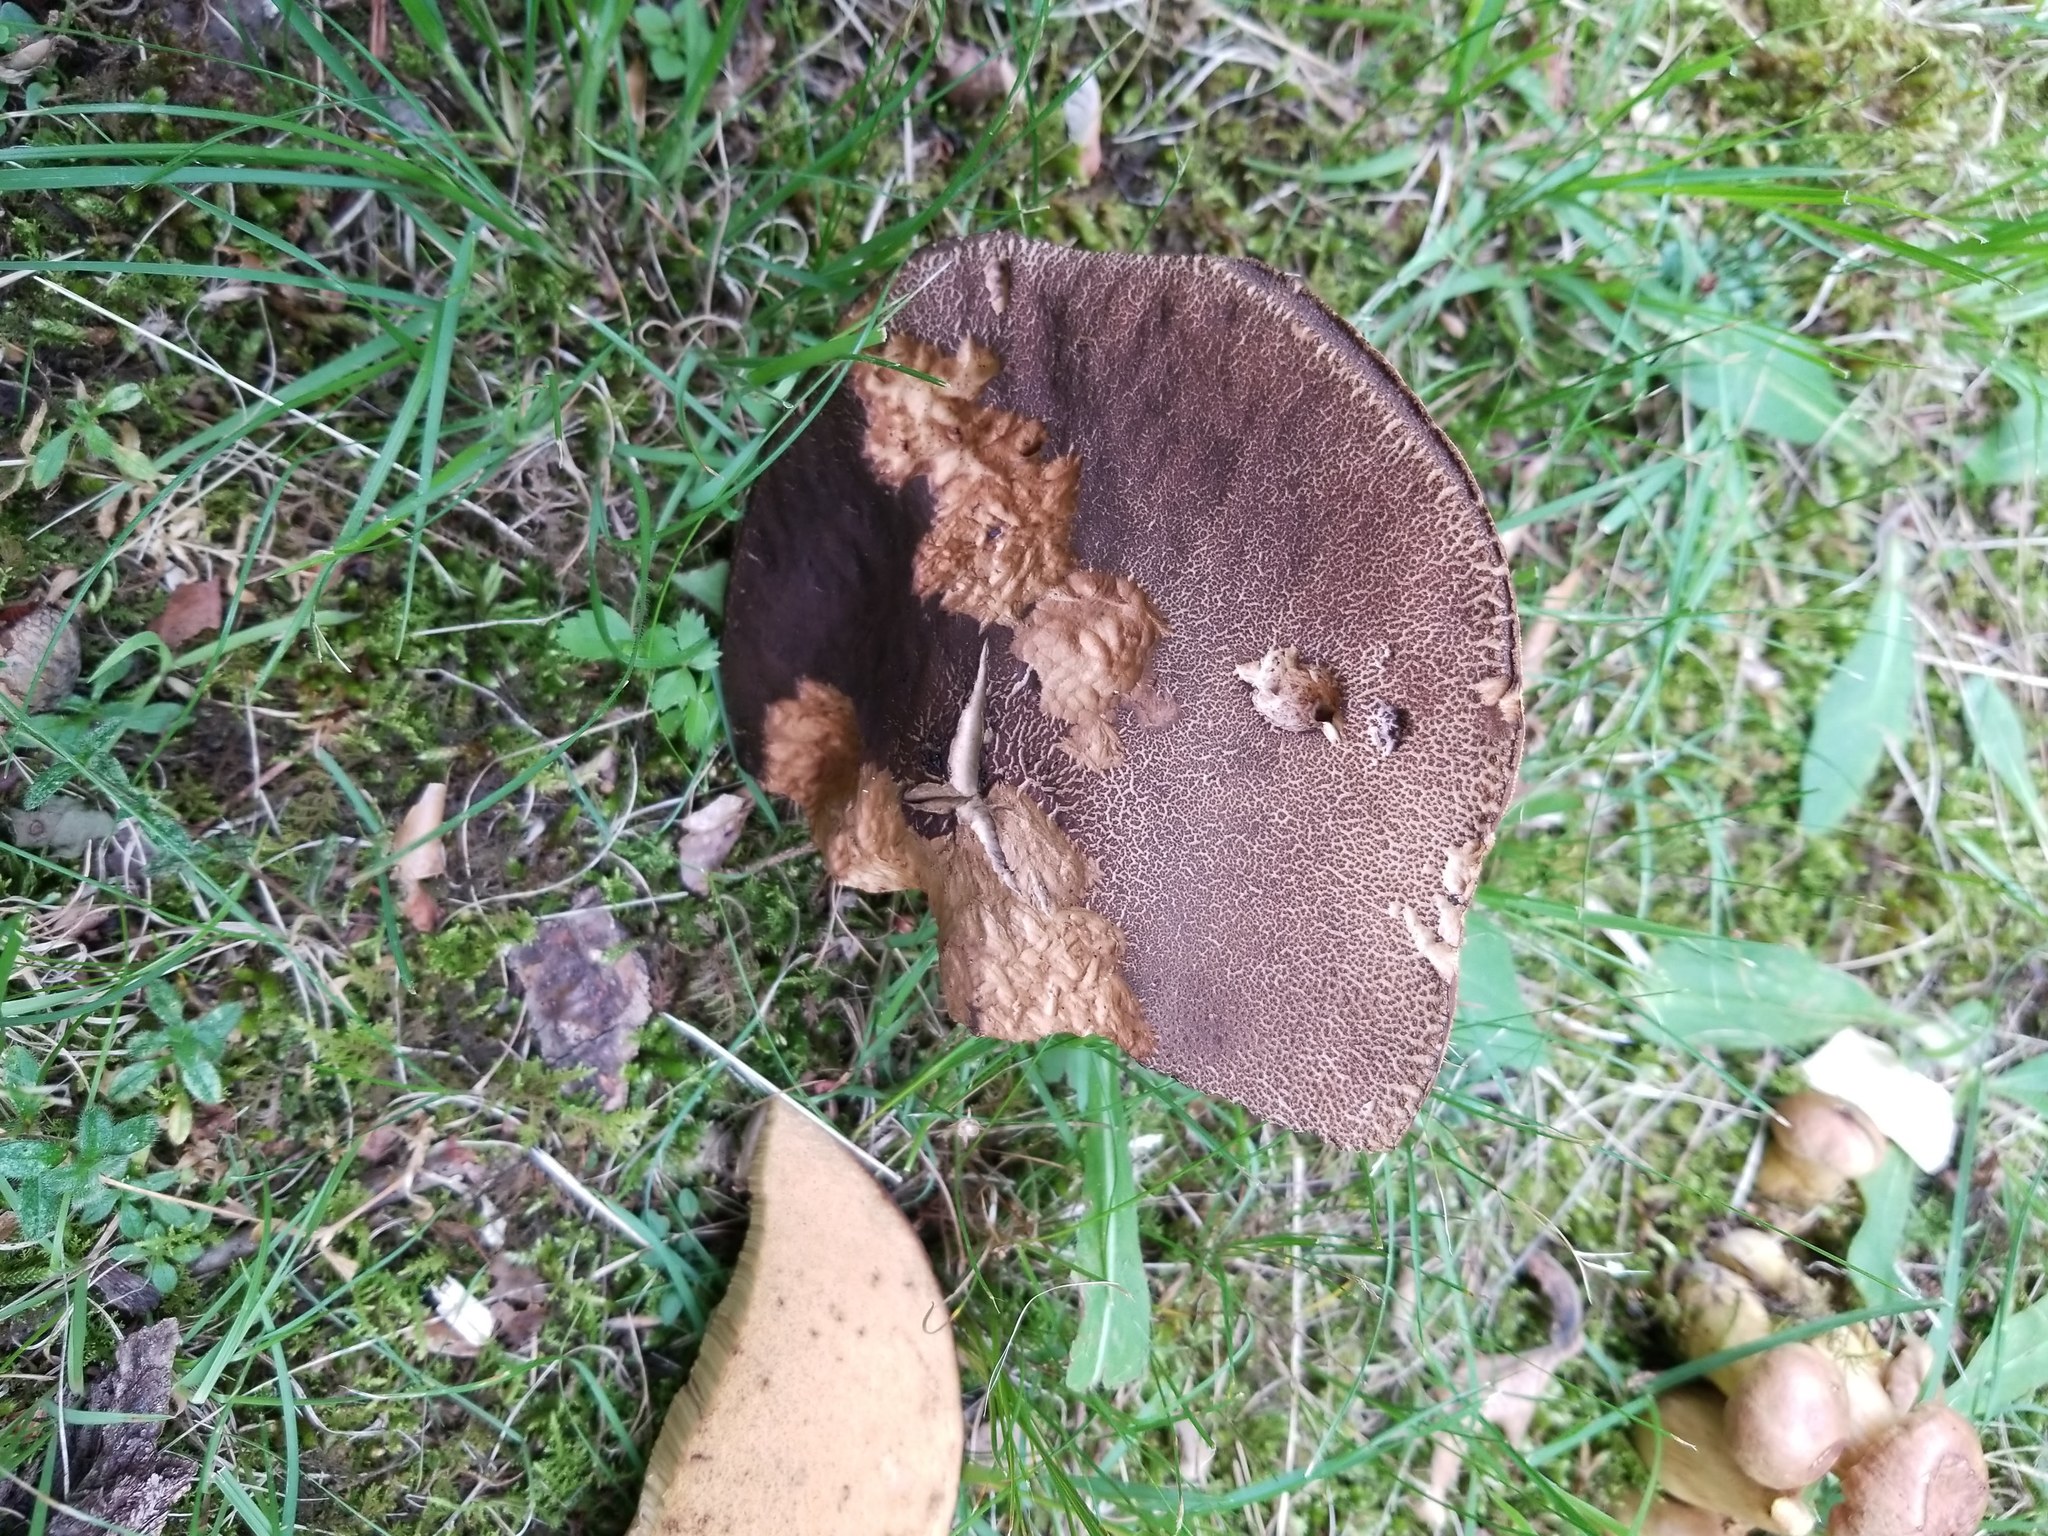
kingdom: Fungi
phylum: Basidiomycota
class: Agaricomycetes
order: Boletales
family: Boletaceae
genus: Tylopilus
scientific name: Tylopilus alboater
